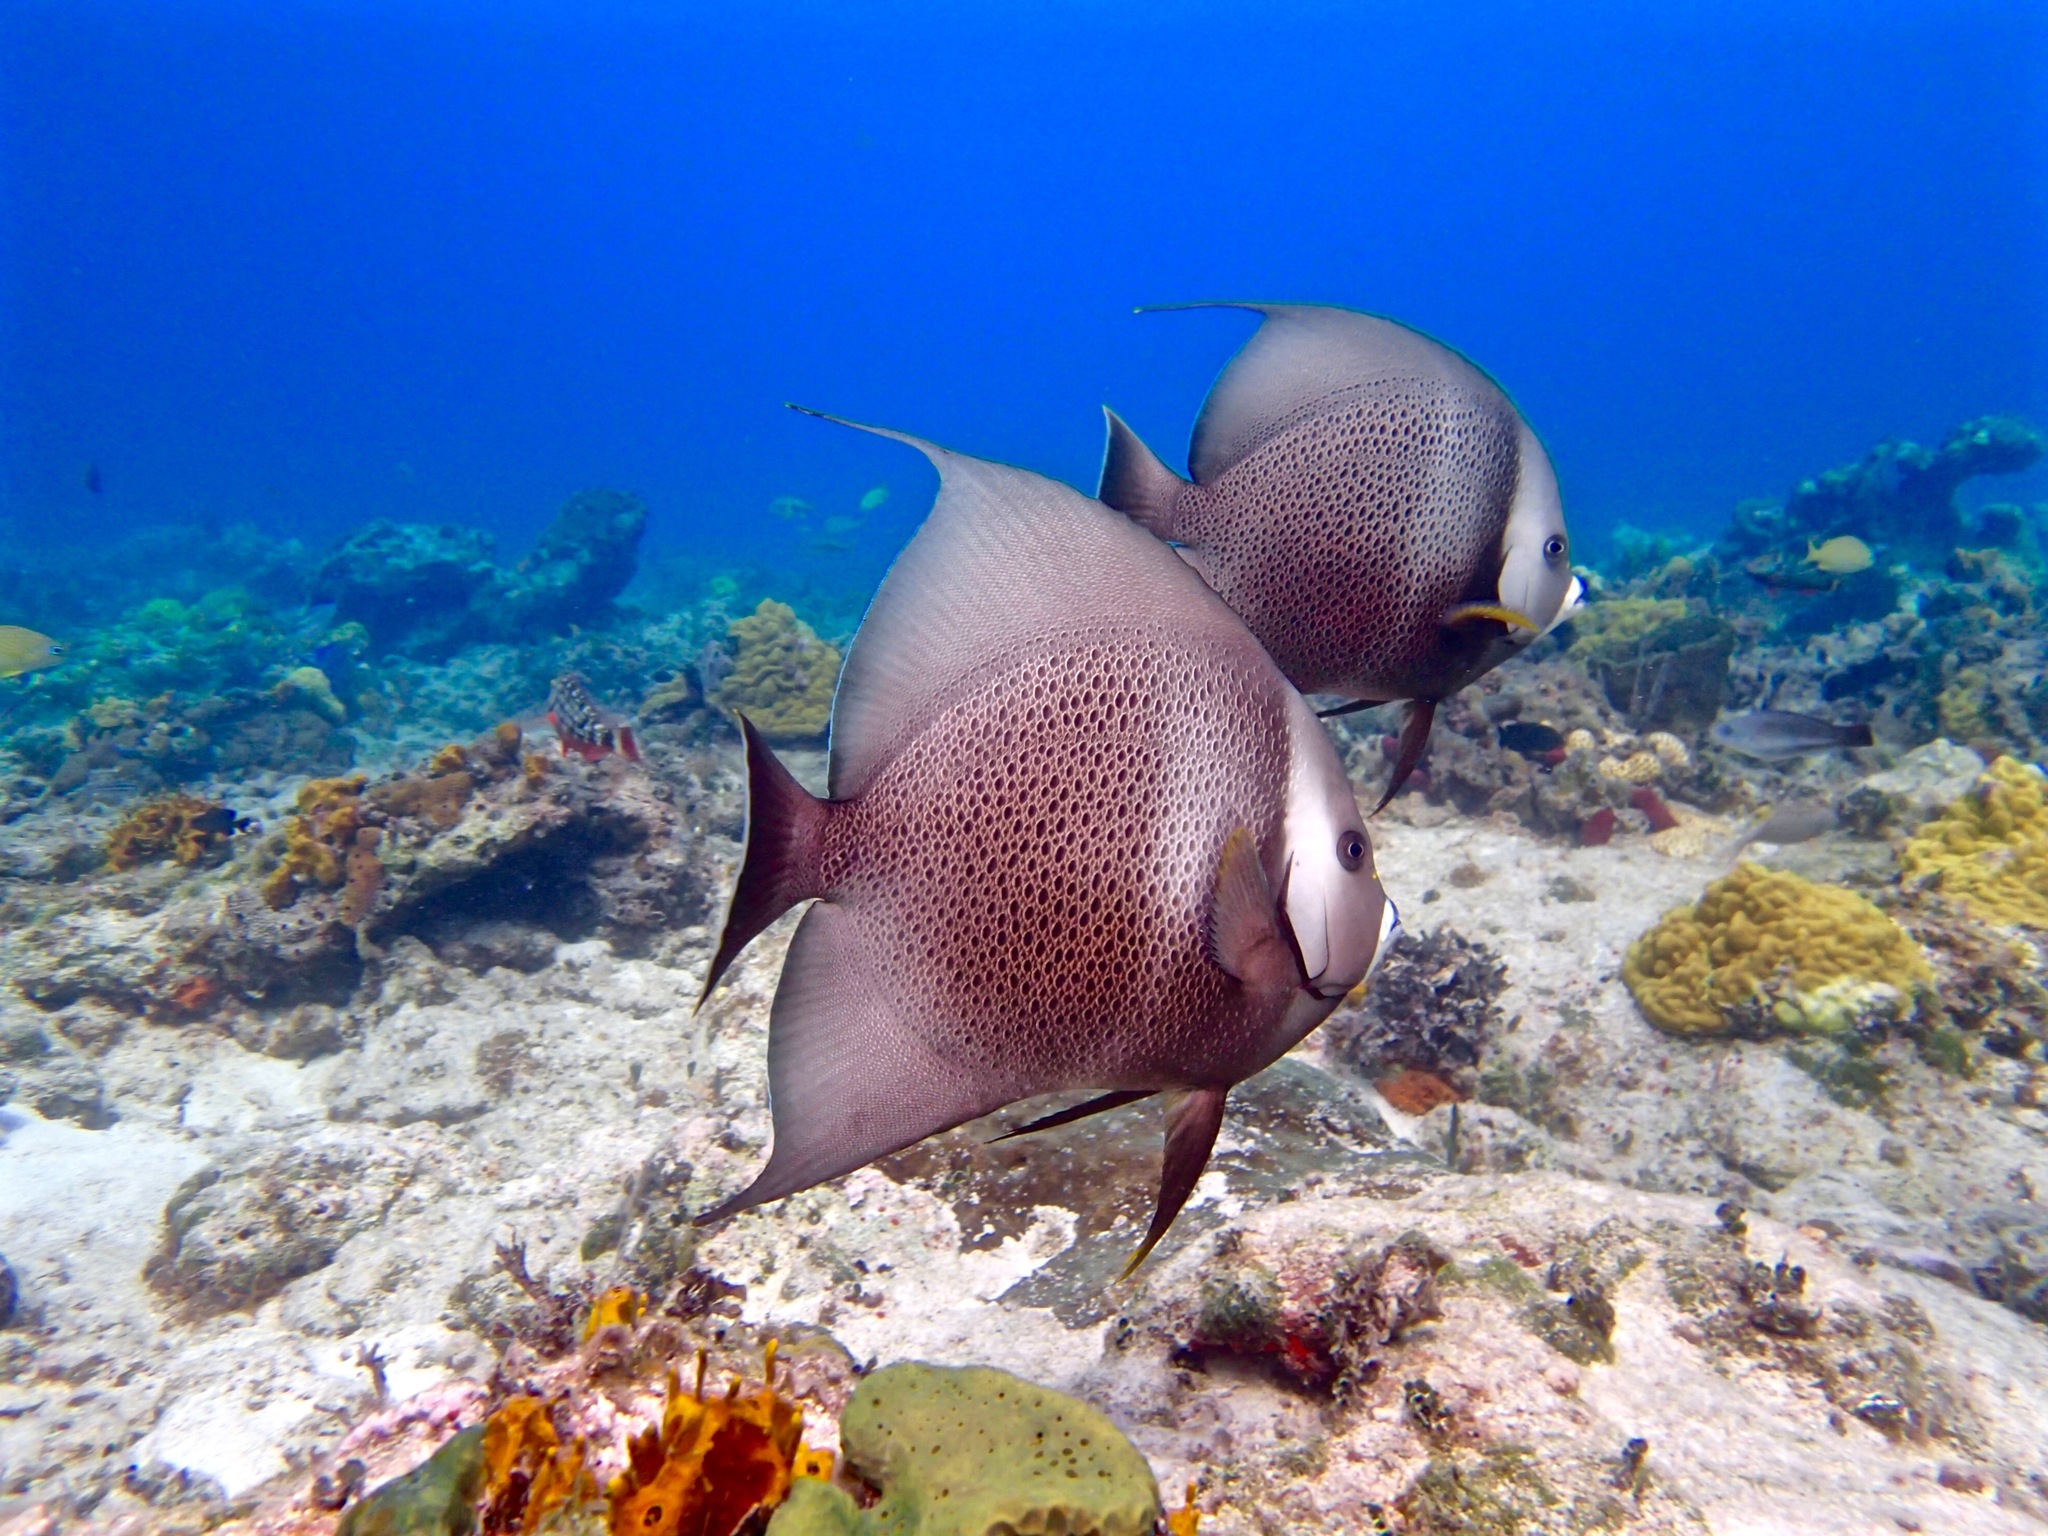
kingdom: Animalia
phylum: Chordata
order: Perciformes
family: Pomacanthidae
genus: Pomacanthus
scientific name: Pomacanthus arcuatus
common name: Gray angelfish
